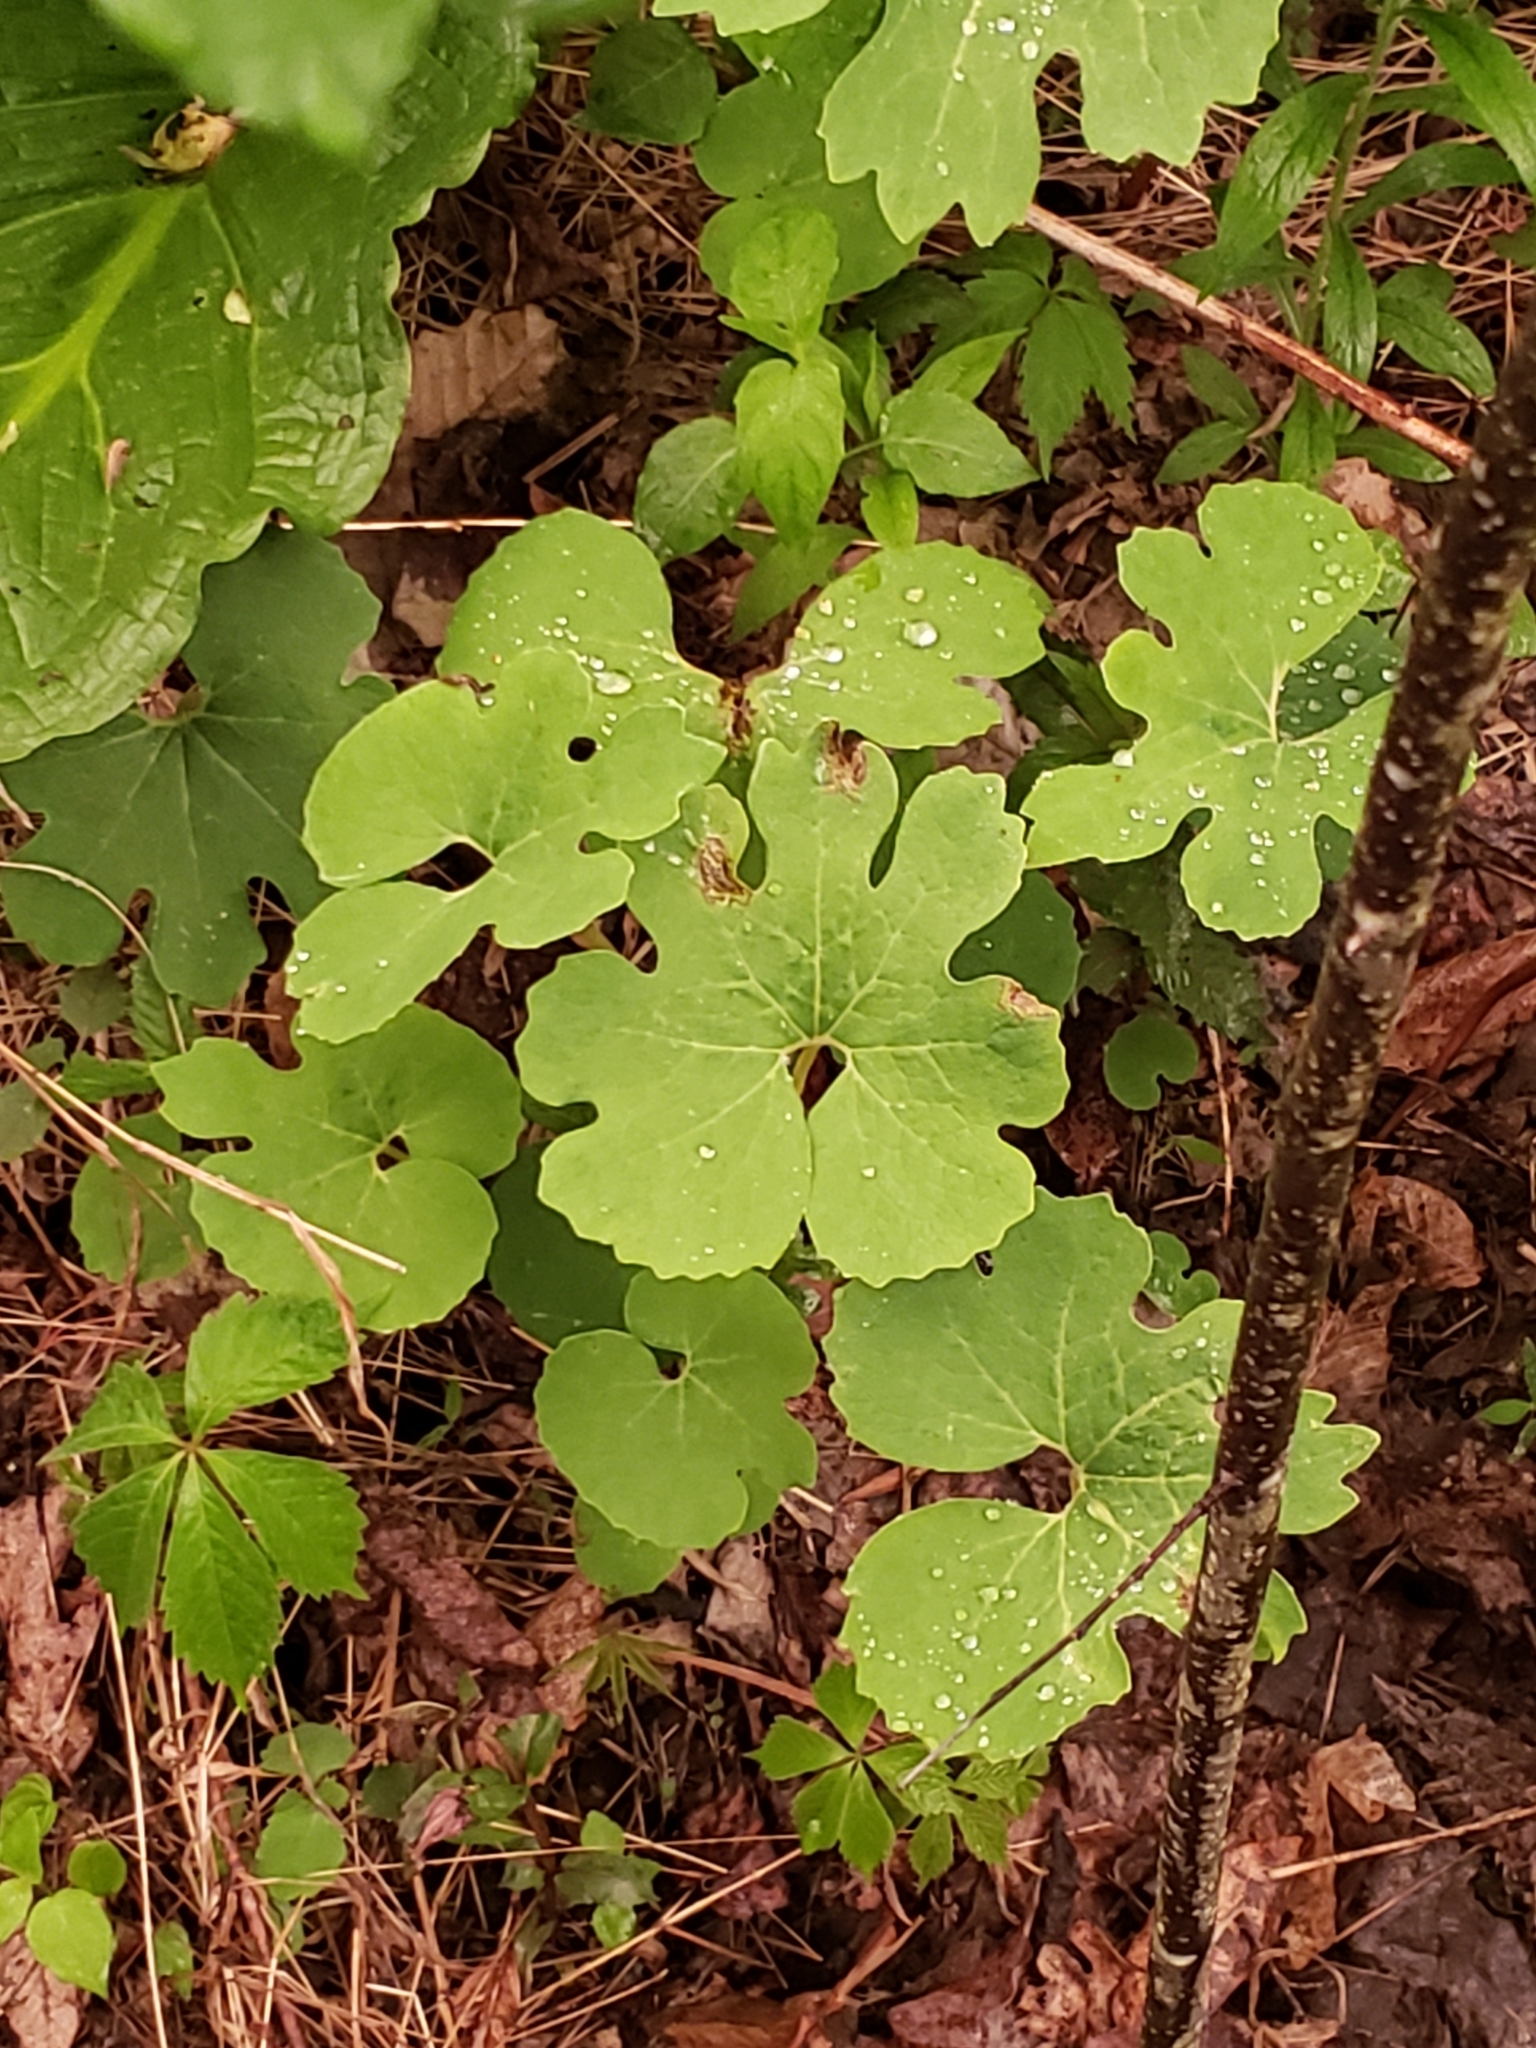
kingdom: Plantae
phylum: Tracheophyta
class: Magnoliopsida
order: Ranunculales
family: Papaveraceae
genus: Sanguinaria
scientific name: Sanguinaria canadensis
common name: Bloodroot
